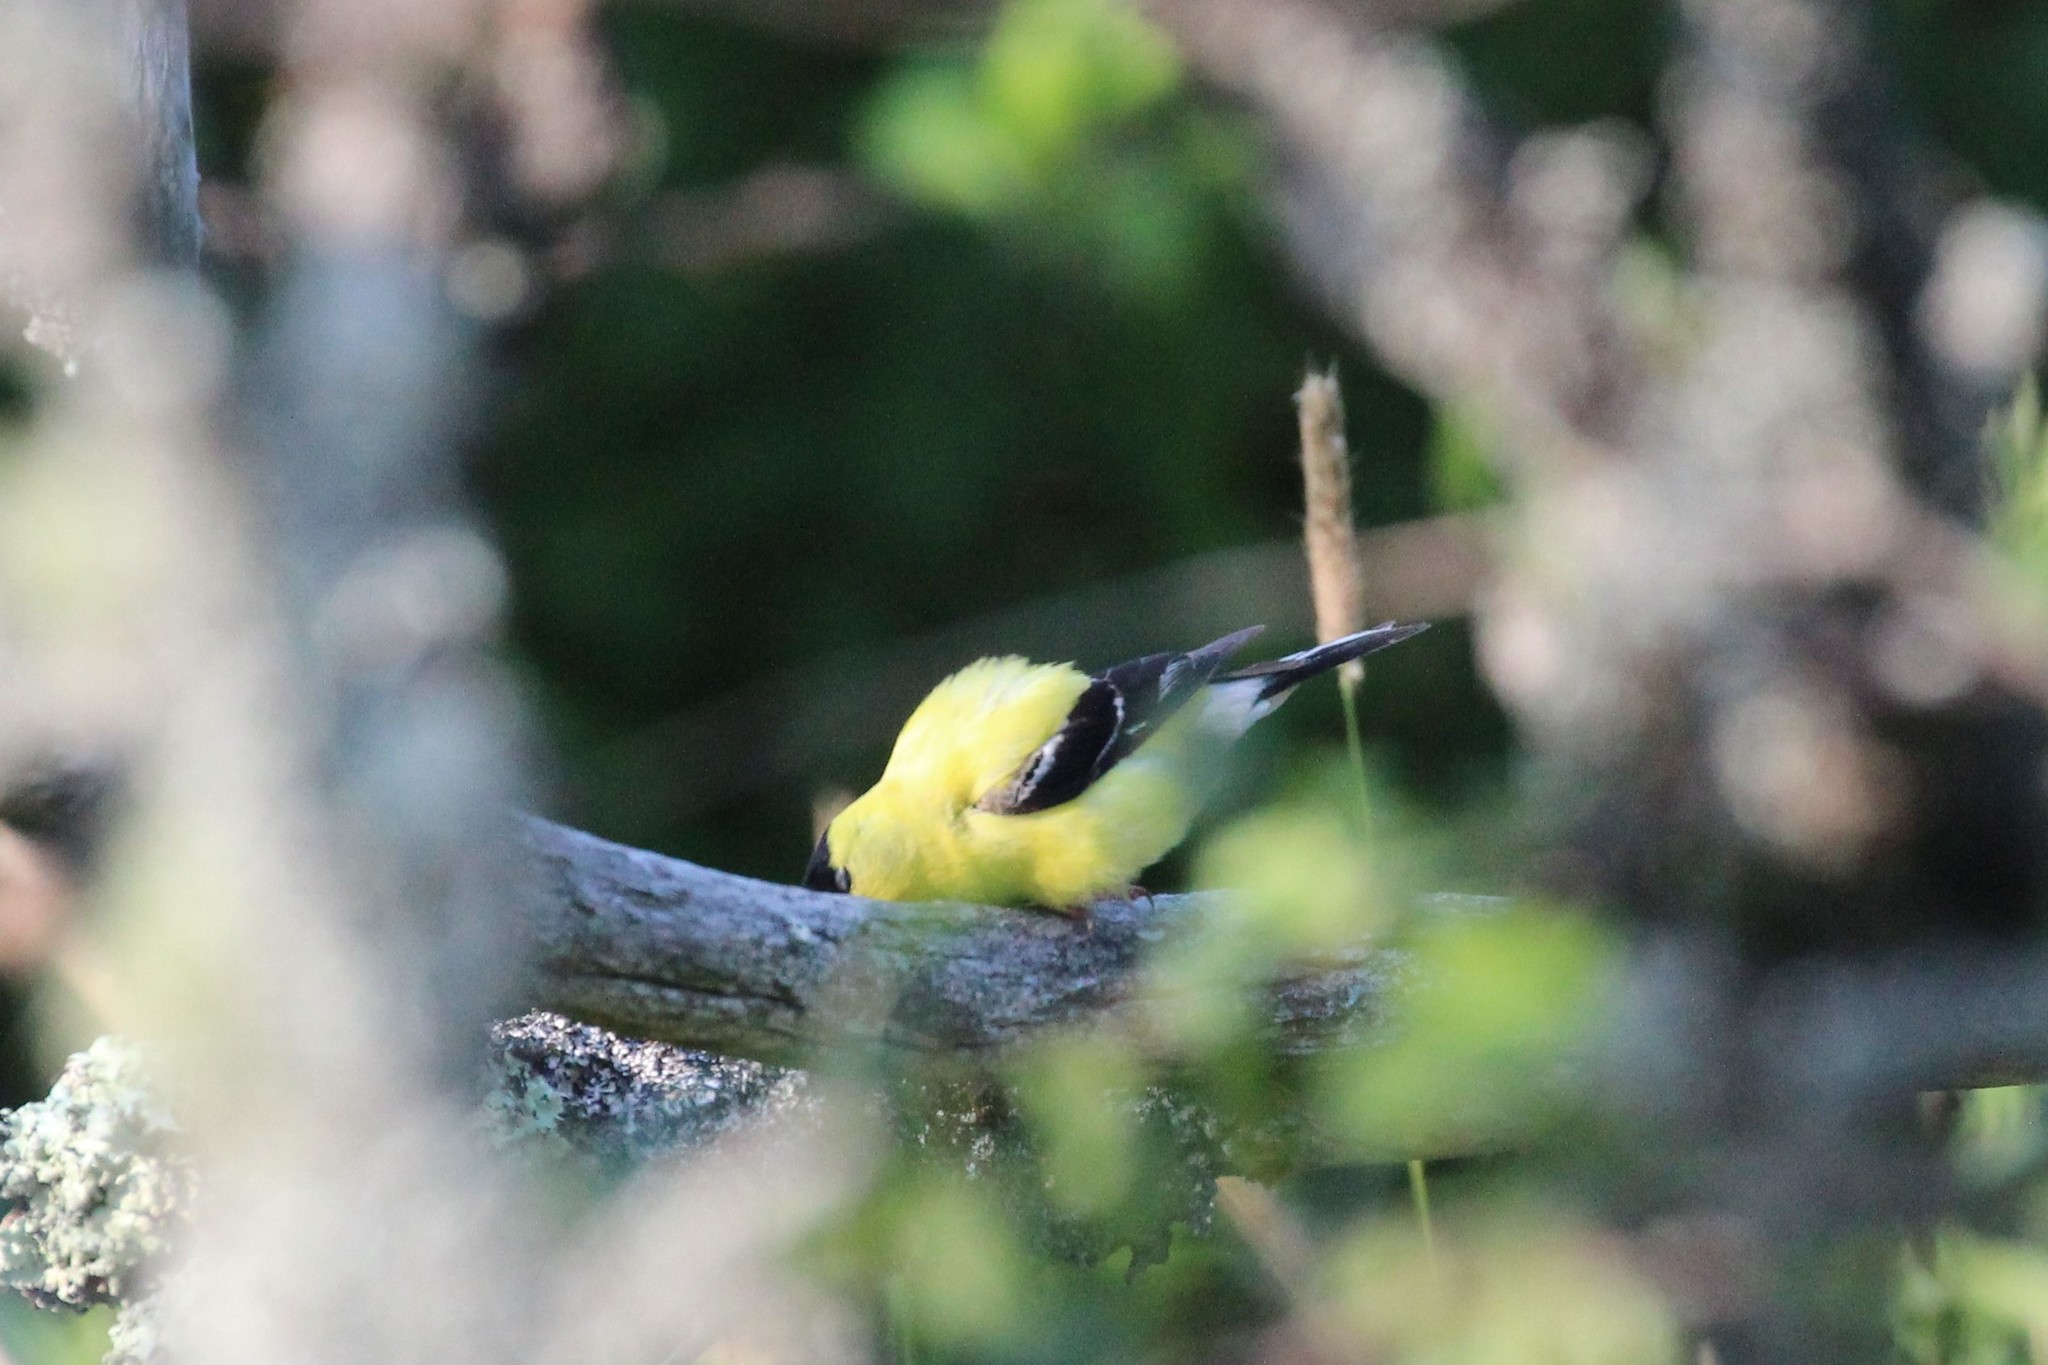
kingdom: Animalia
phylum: Chordata
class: Aves
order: Passeriformes
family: Fringillidae
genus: Spinus
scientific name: Spinus tristis
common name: American goldfinch
